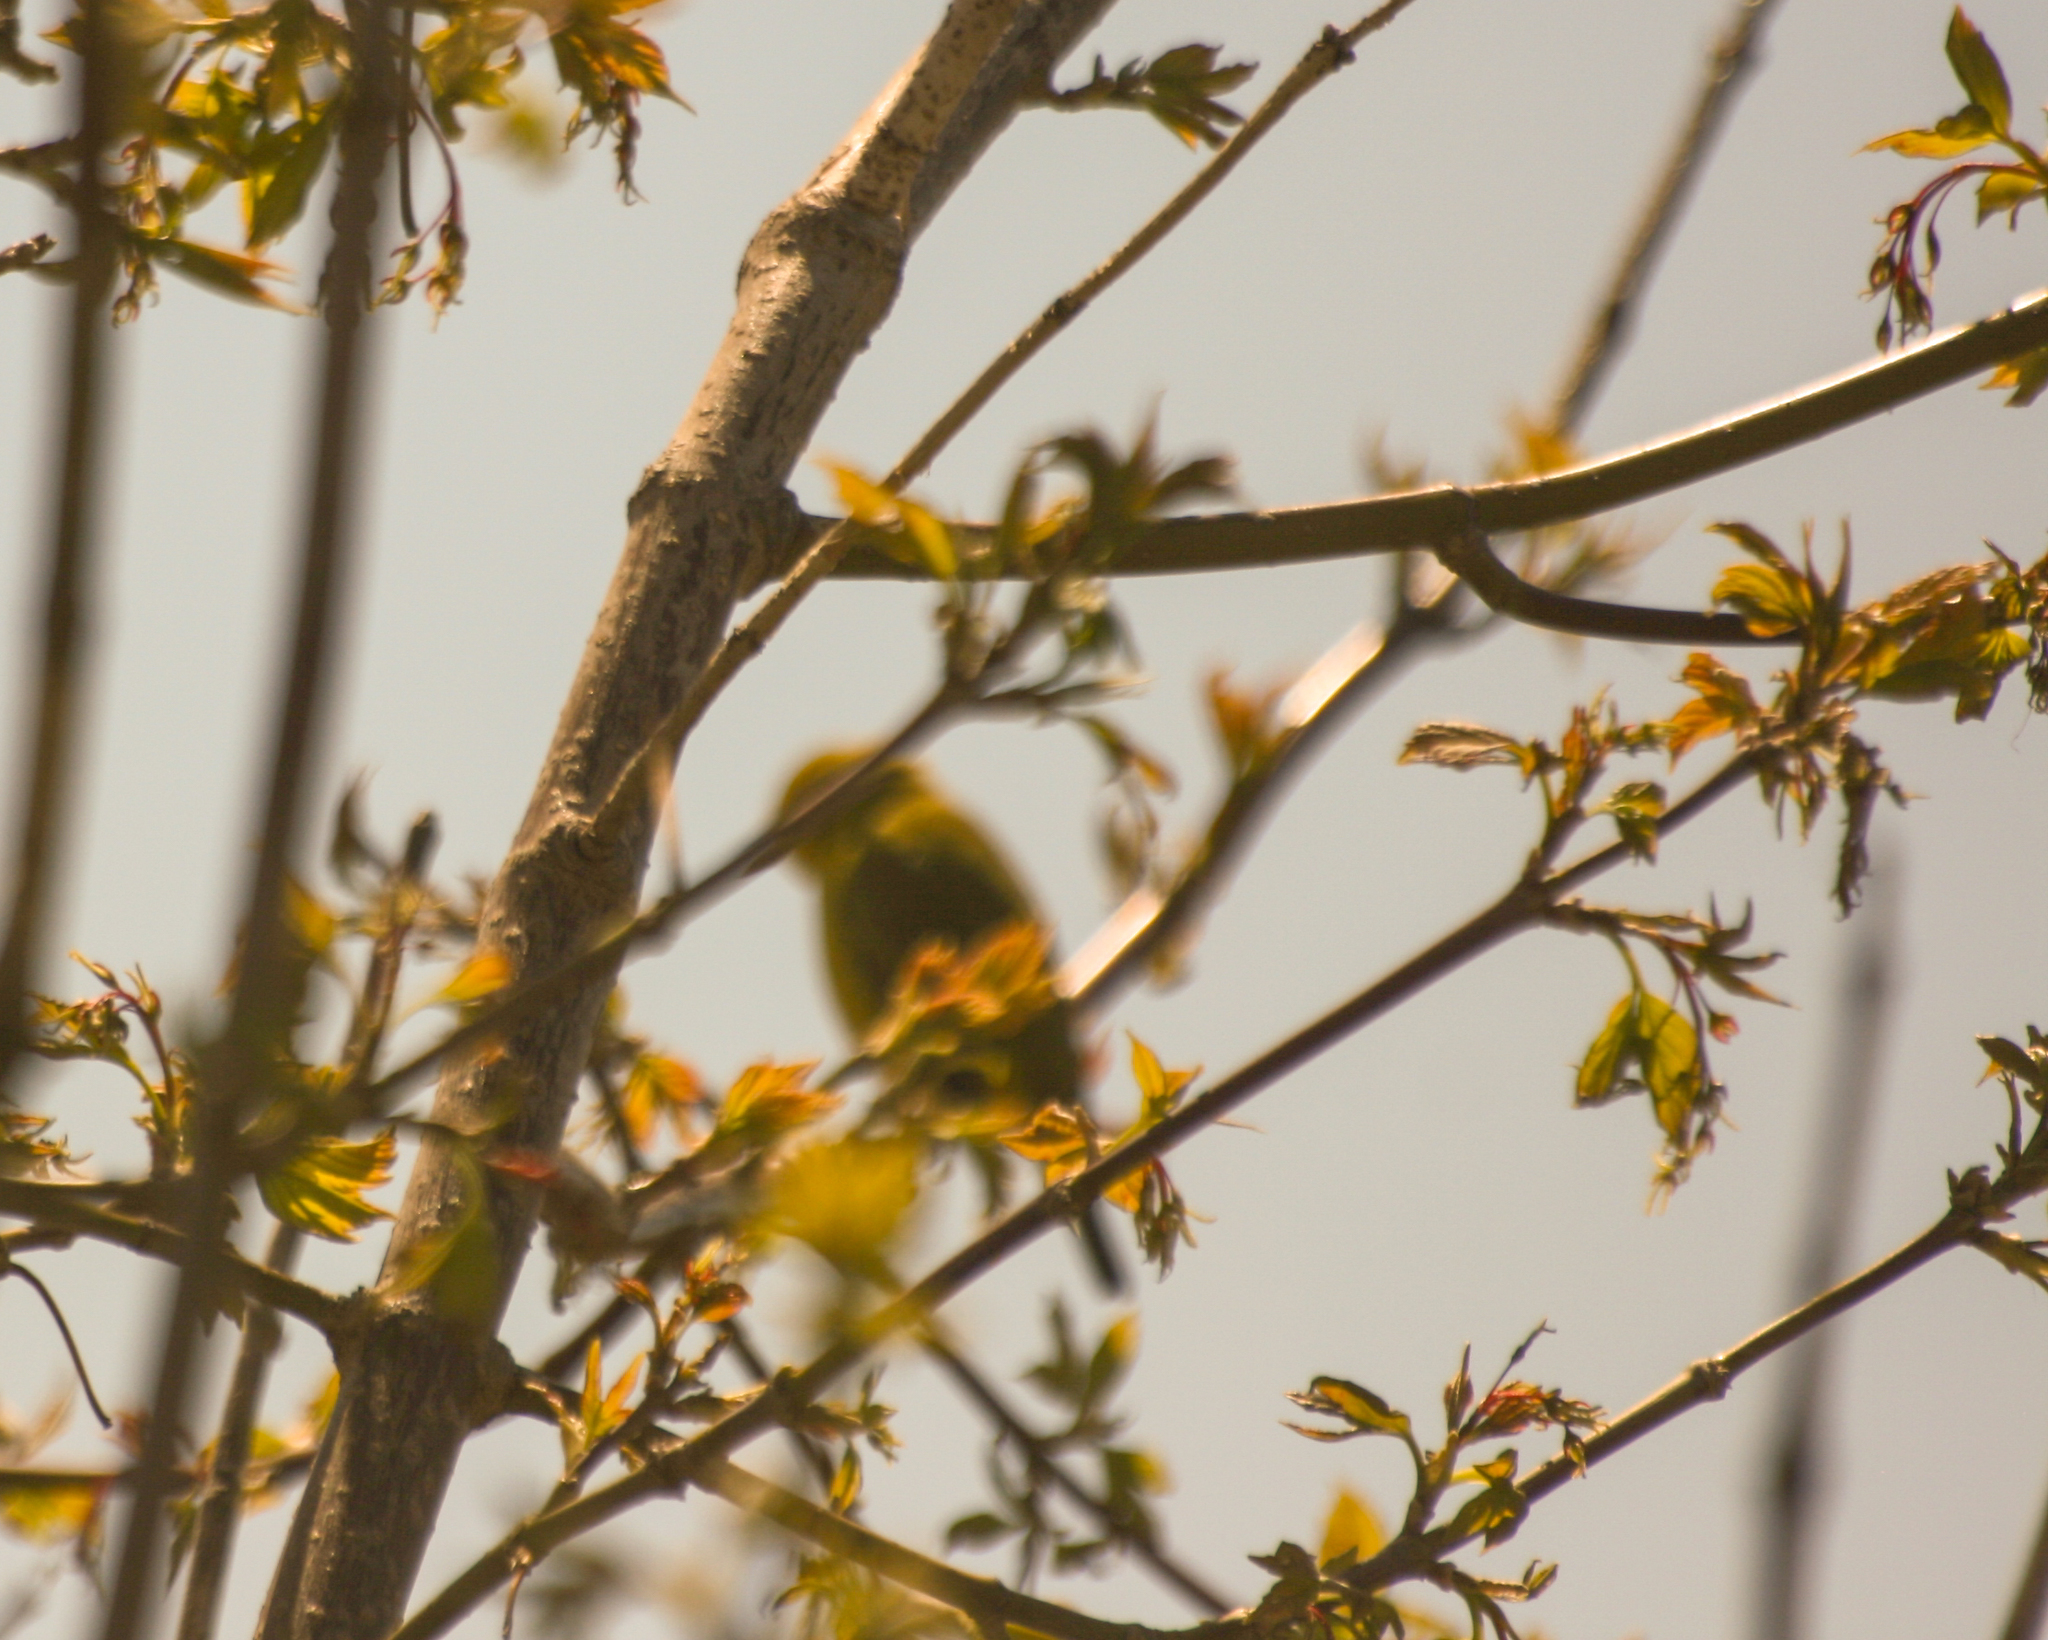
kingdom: Animalia
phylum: Chordata
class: Aves
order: Passeriformes
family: Parulidae
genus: Setophaga
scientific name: Setophaga petechia
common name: Yellow warbler
